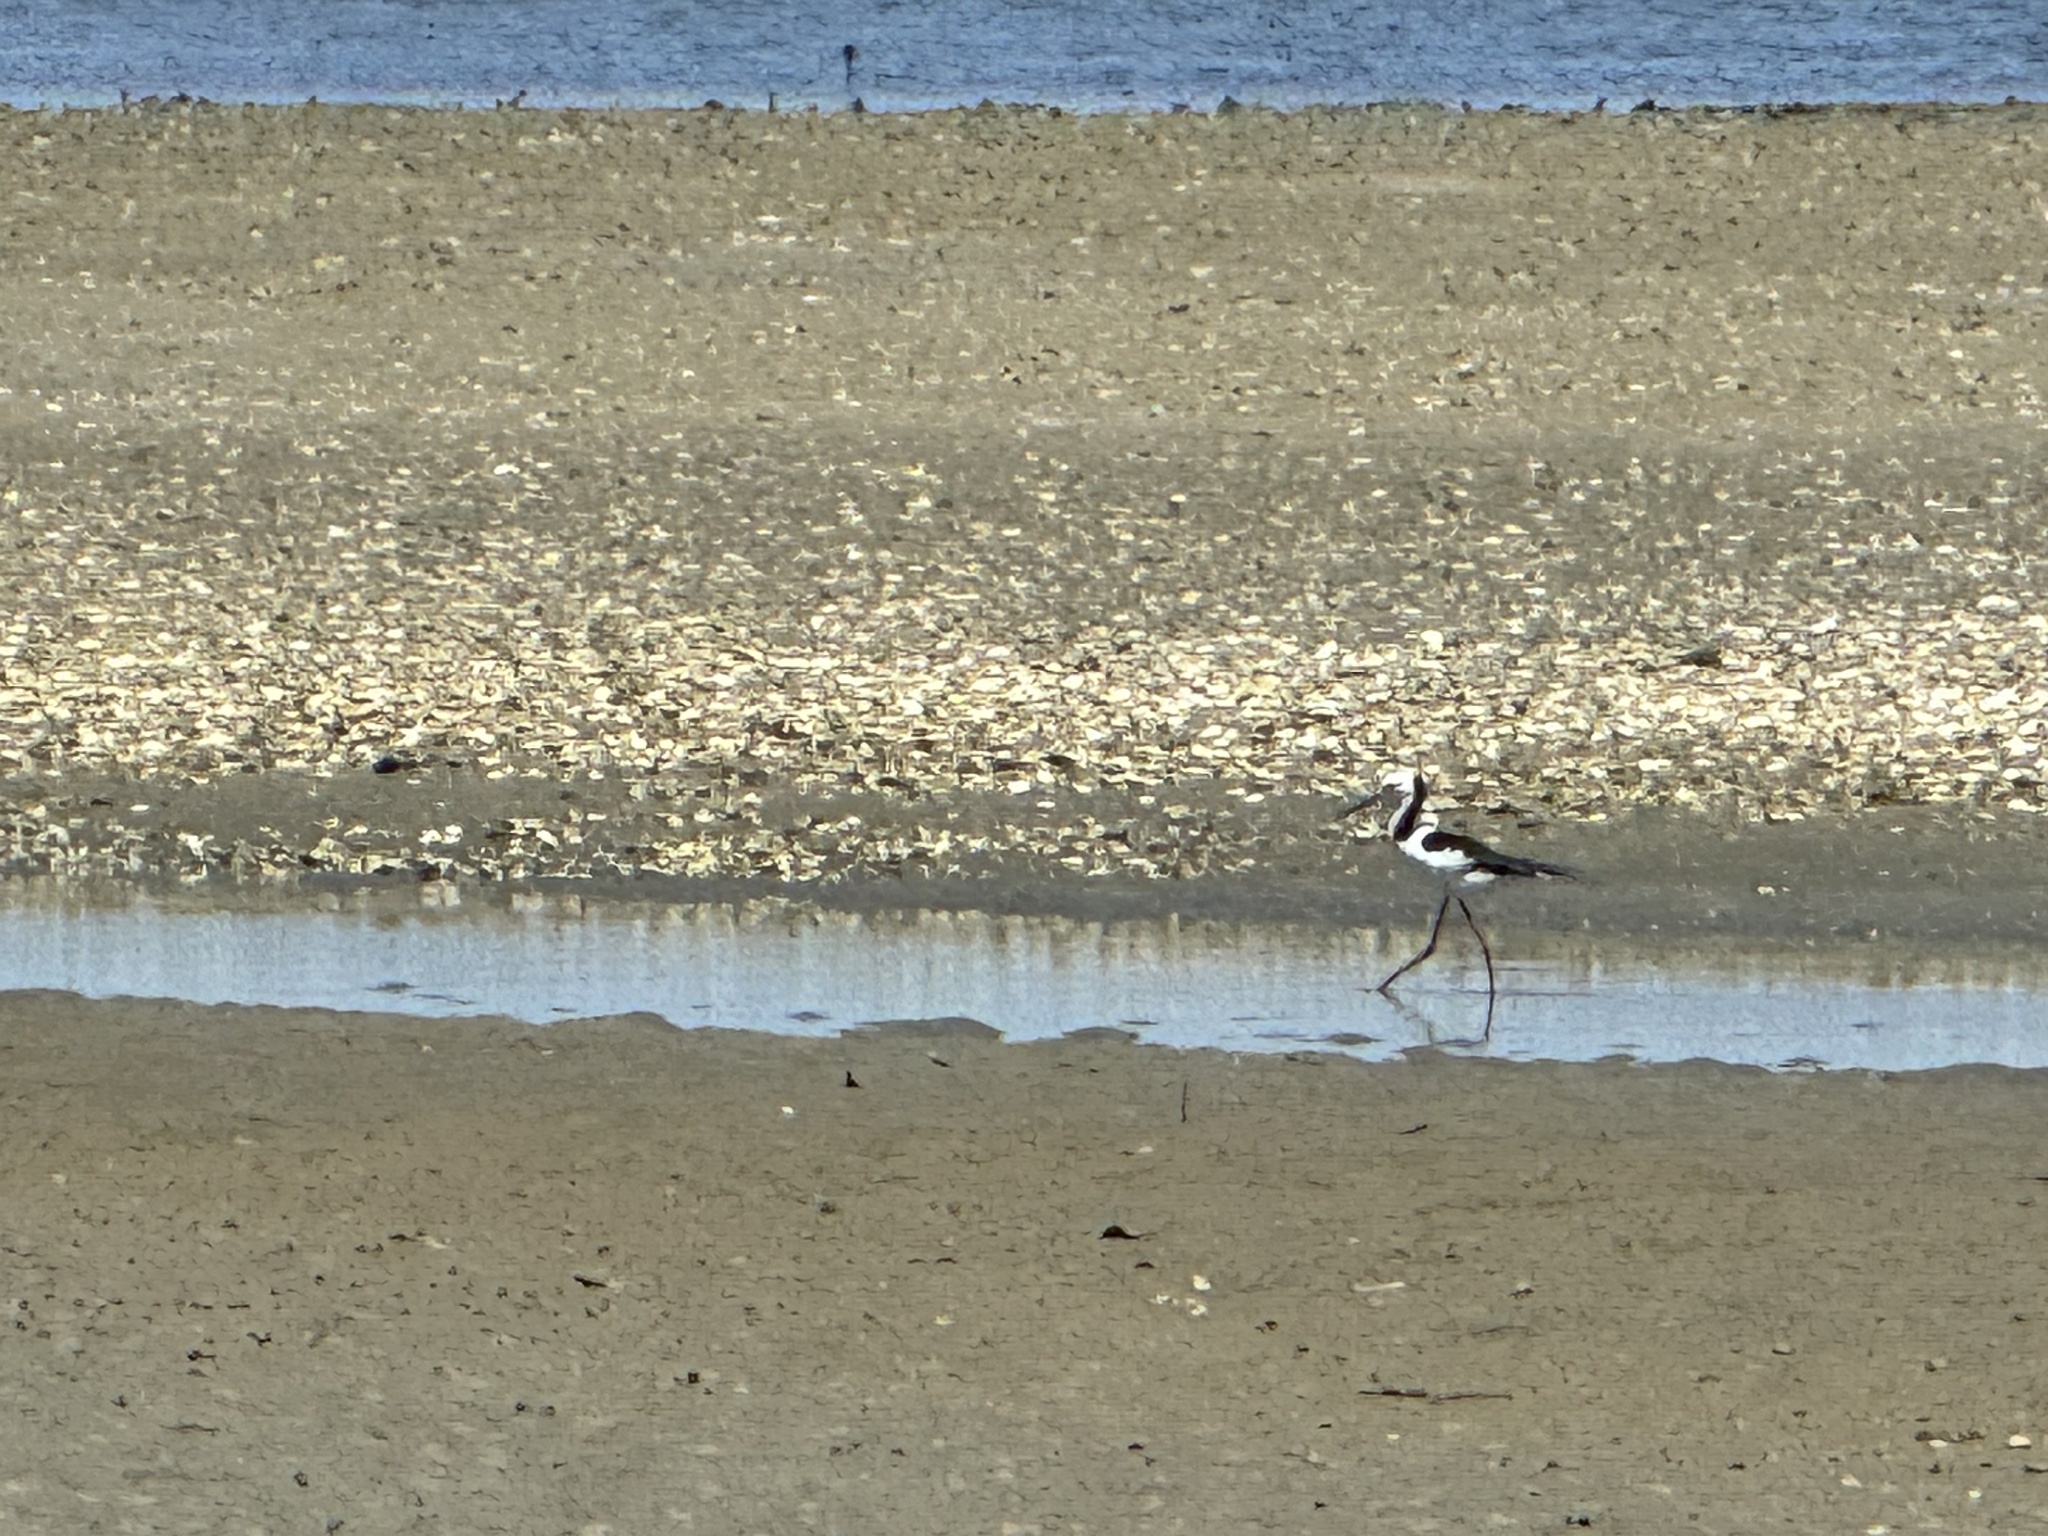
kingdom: Animalia
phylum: Chordata
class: Aves
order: Charadriiformes
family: Recurvirostridae
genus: Himantopus
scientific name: Himantopus leucocephalus
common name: White-headed stilt
